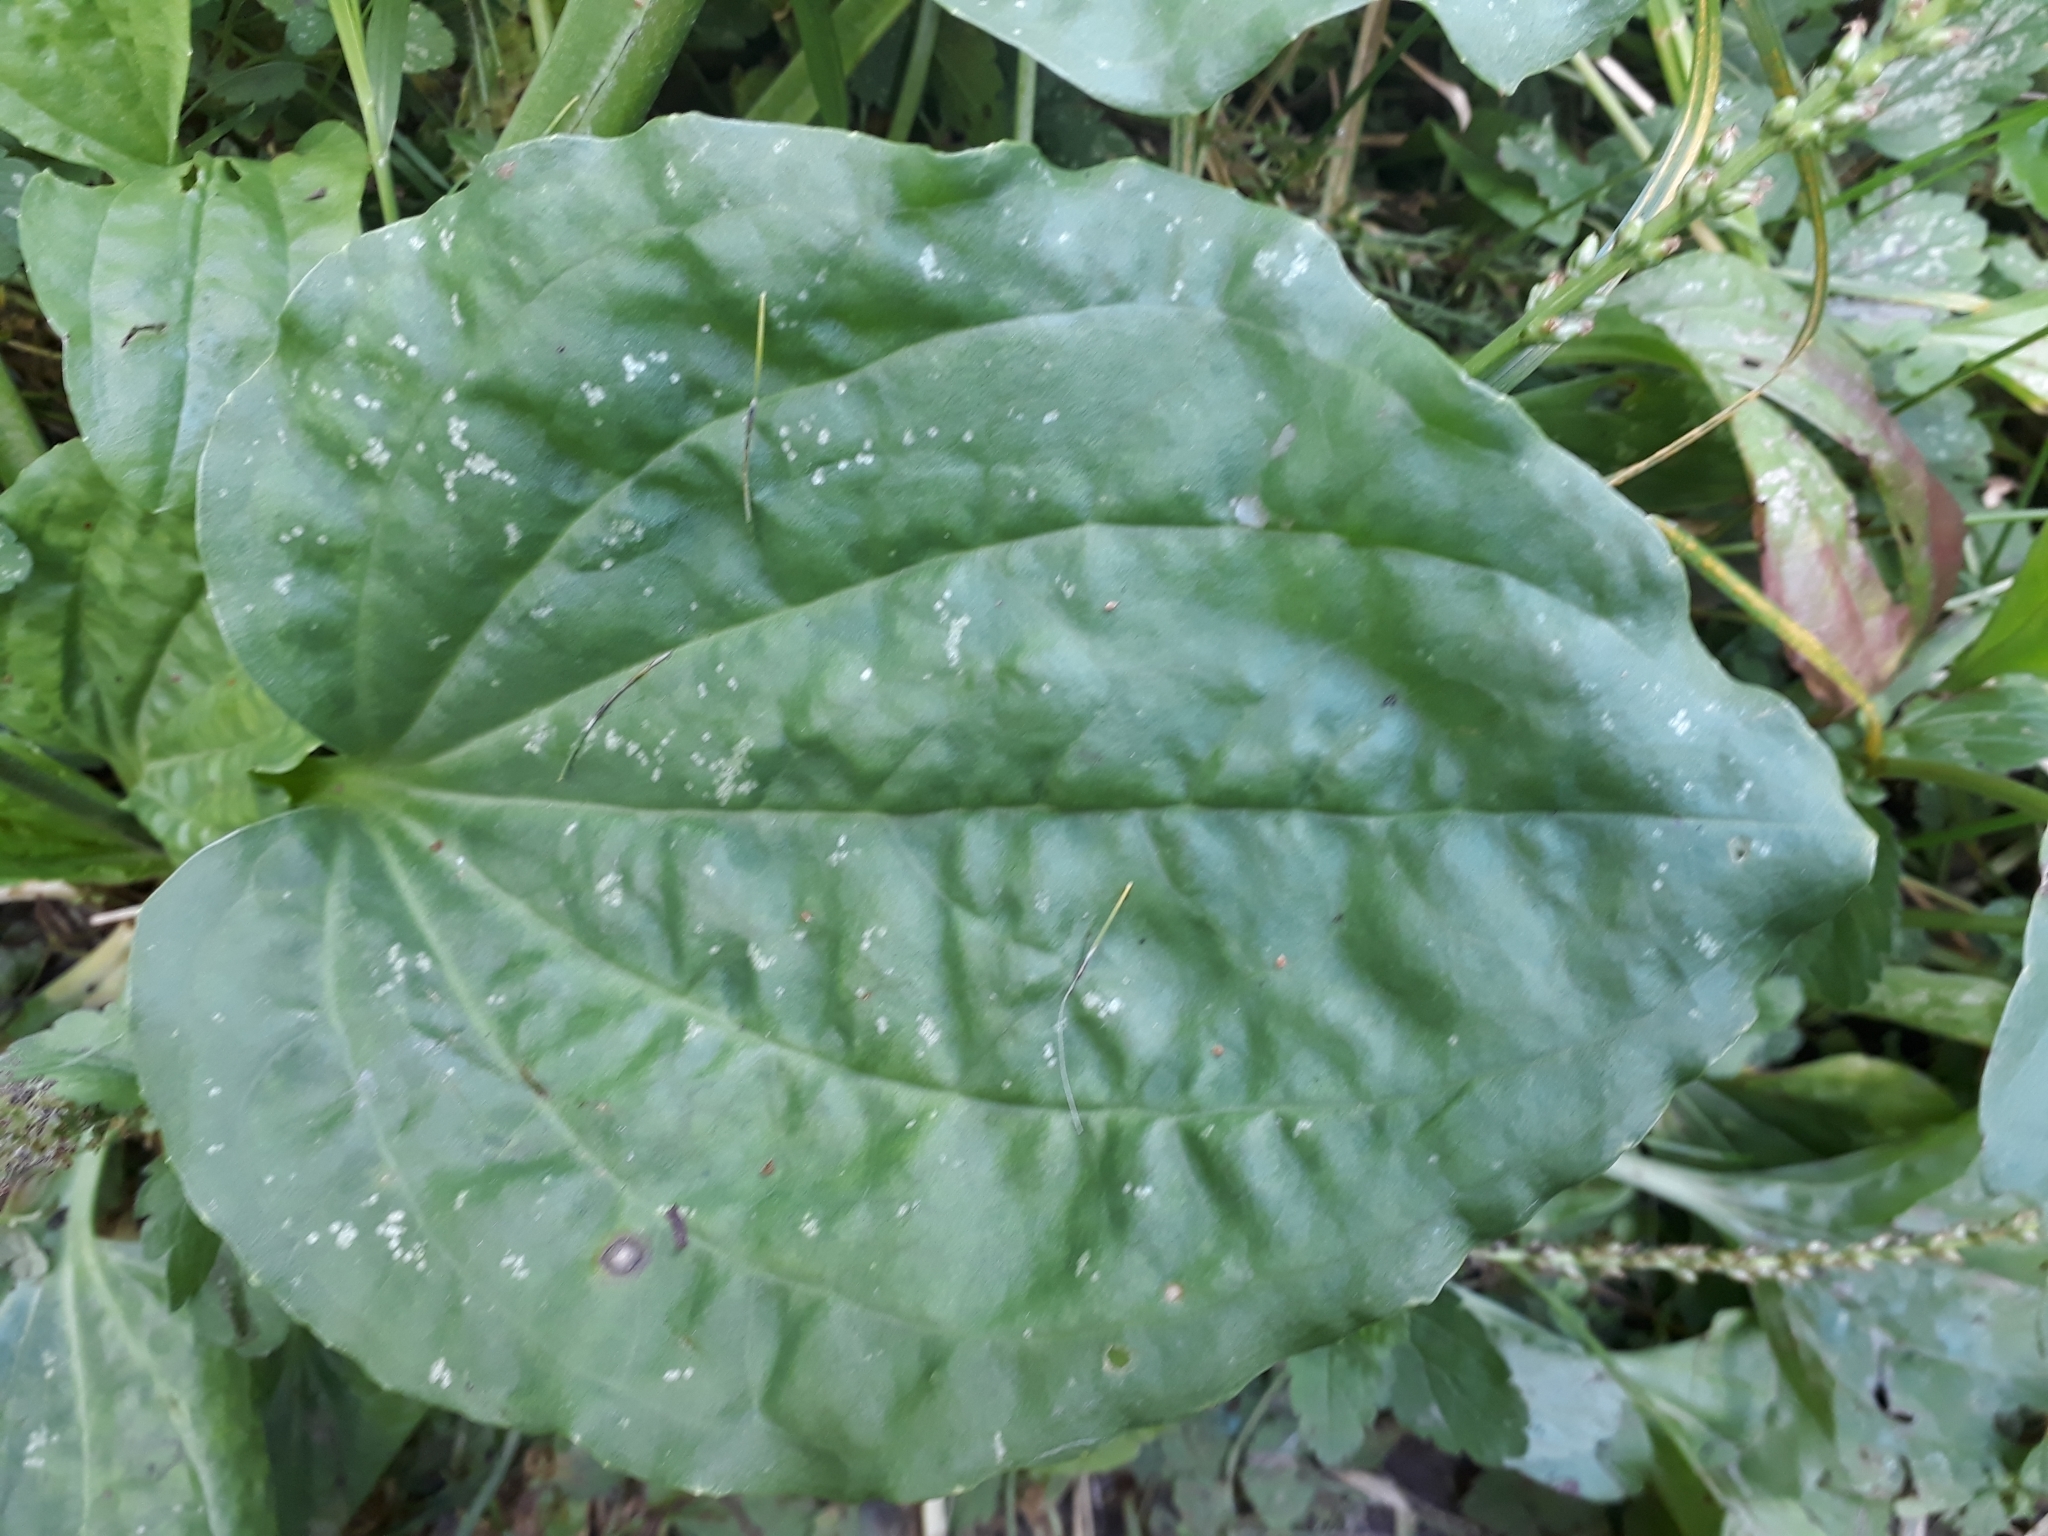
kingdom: Plantae
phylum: Tracheophyta
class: Magnoliopsida
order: Lamiales
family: Plantaginaceae
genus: Plantago
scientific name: Plantago major
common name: Common plantain
